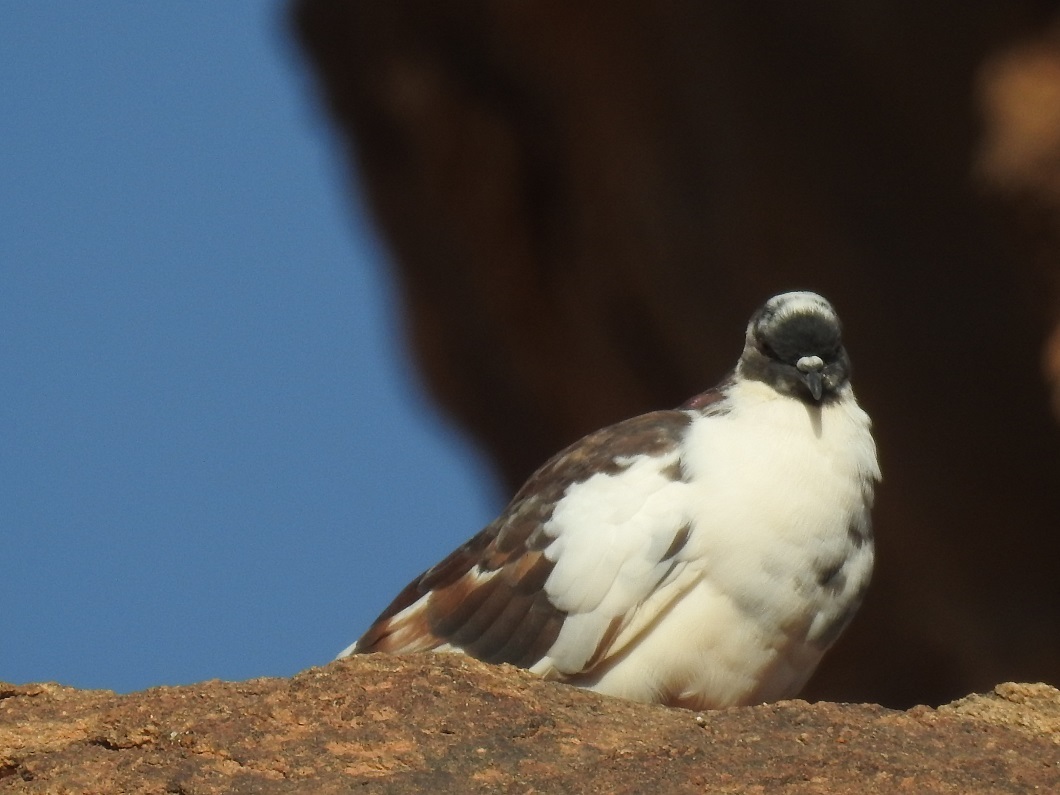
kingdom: Animalia
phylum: Chordata
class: Aves
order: Columbiformes
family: Columbidae
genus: Columba
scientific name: Columba livia
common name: Rock pigeon
